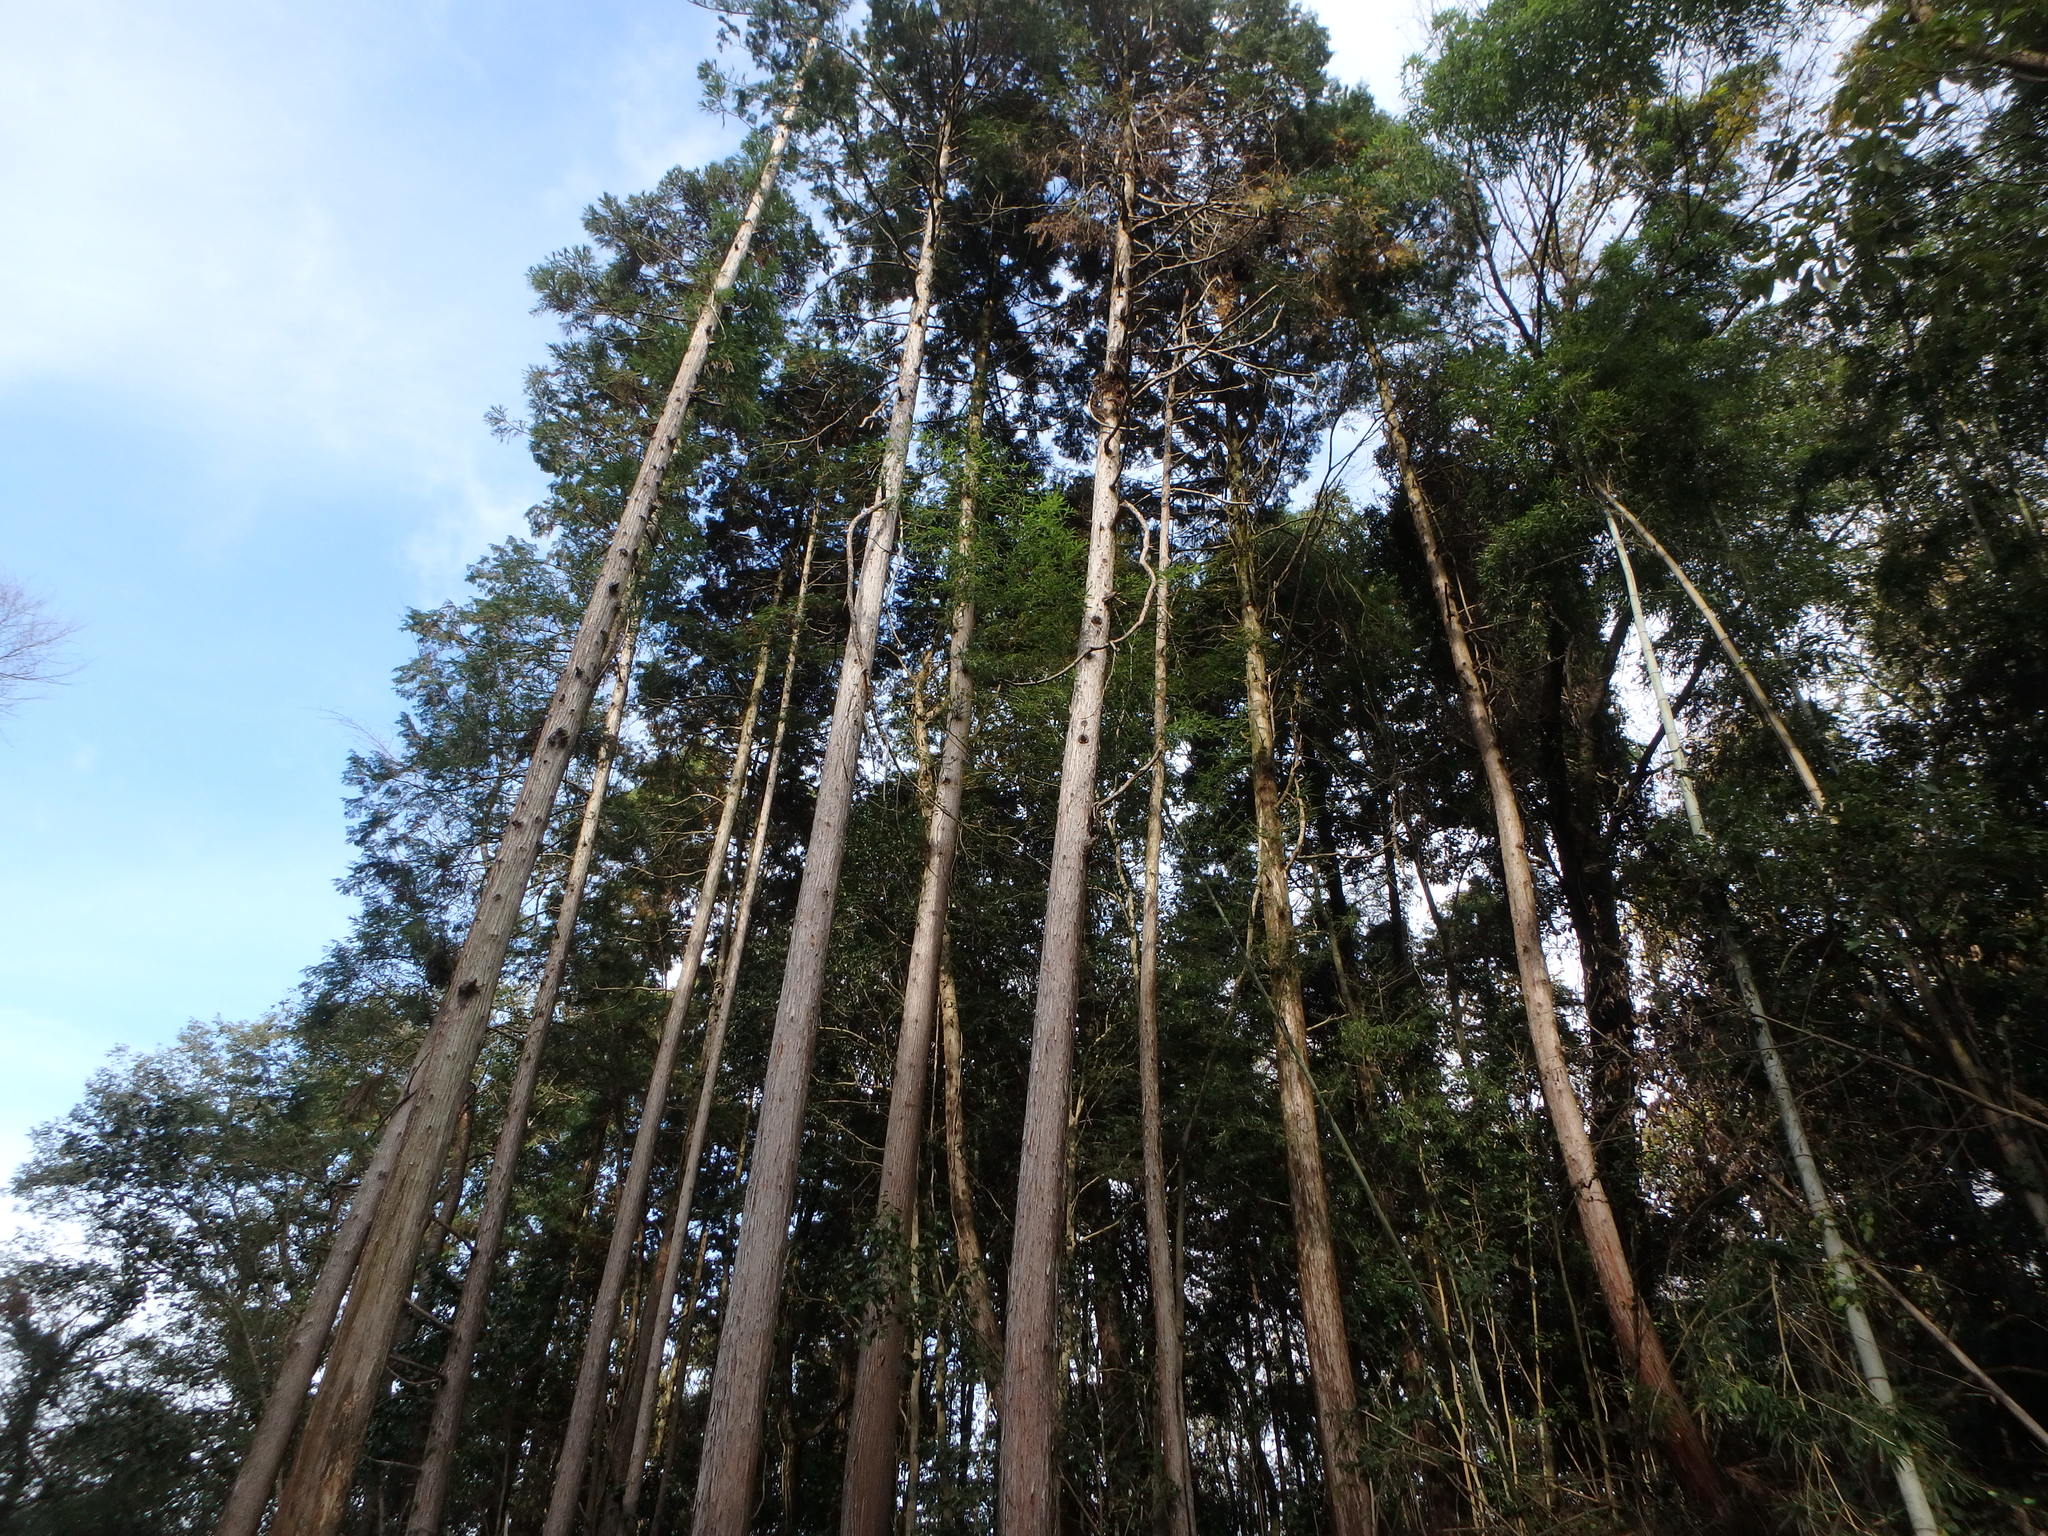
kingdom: Plantae
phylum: Tracheophyta
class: Pinopsida
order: Pinales
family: Cupressaceae
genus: Cryptomeria
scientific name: Cryptomeria japonica
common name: Japanese cedar
